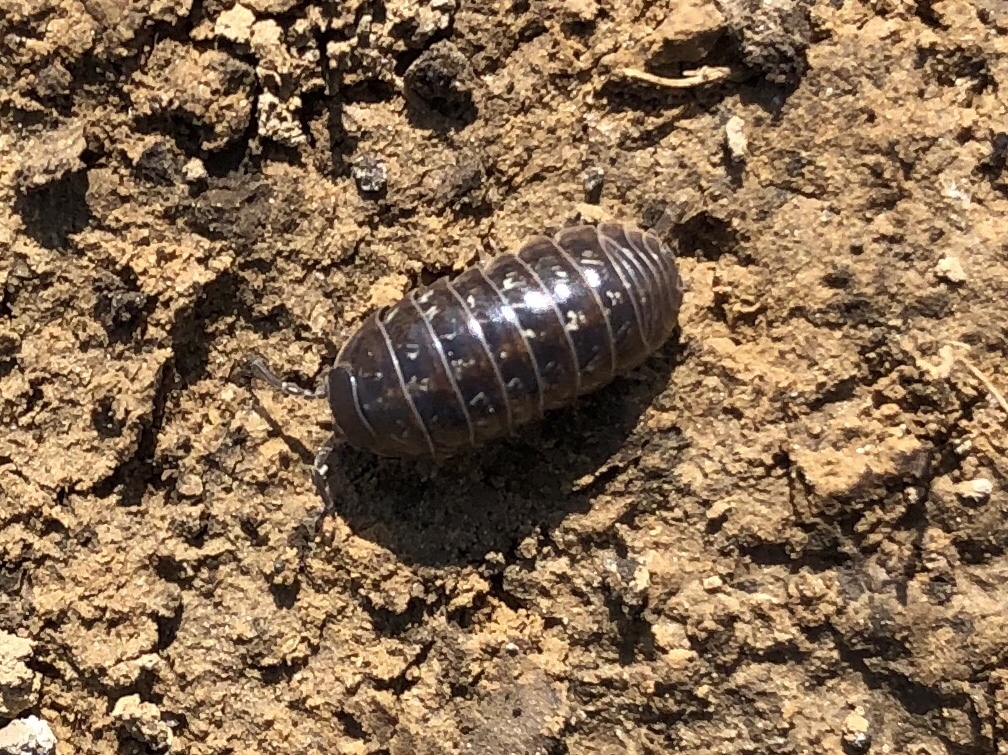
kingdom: Animalia
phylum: Arthropoda
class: Malacostraca
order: Isopoda
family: Armadillidiidae
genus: Armadillidium
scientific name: Armadillidium vulgare
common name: Common pill woodlouse
